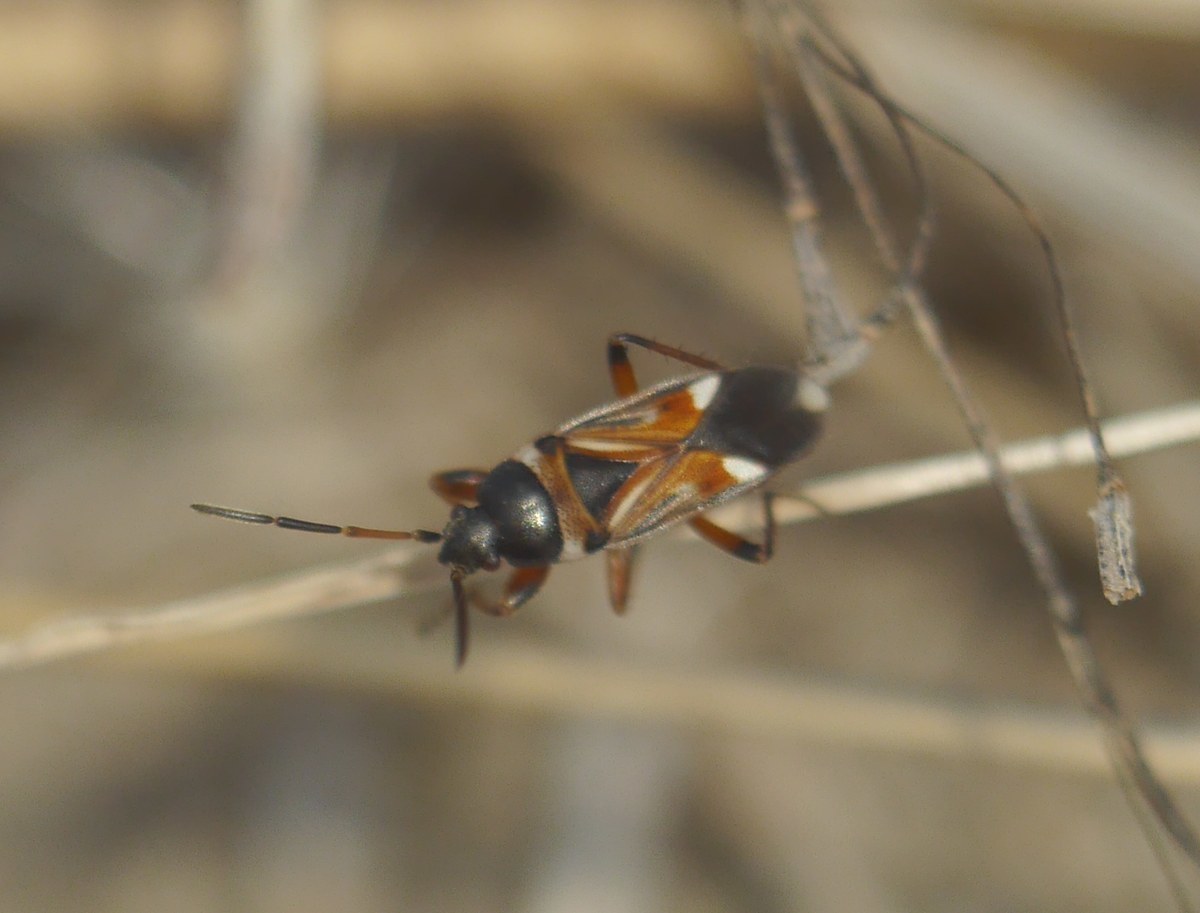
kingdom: Animalia
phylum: Arthropoda
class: Insecta
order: Hemiptera
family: Rhyparochromidae
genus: Raglius
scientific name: Raglius alboacuminatus
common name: Dirt-colored seed bug
